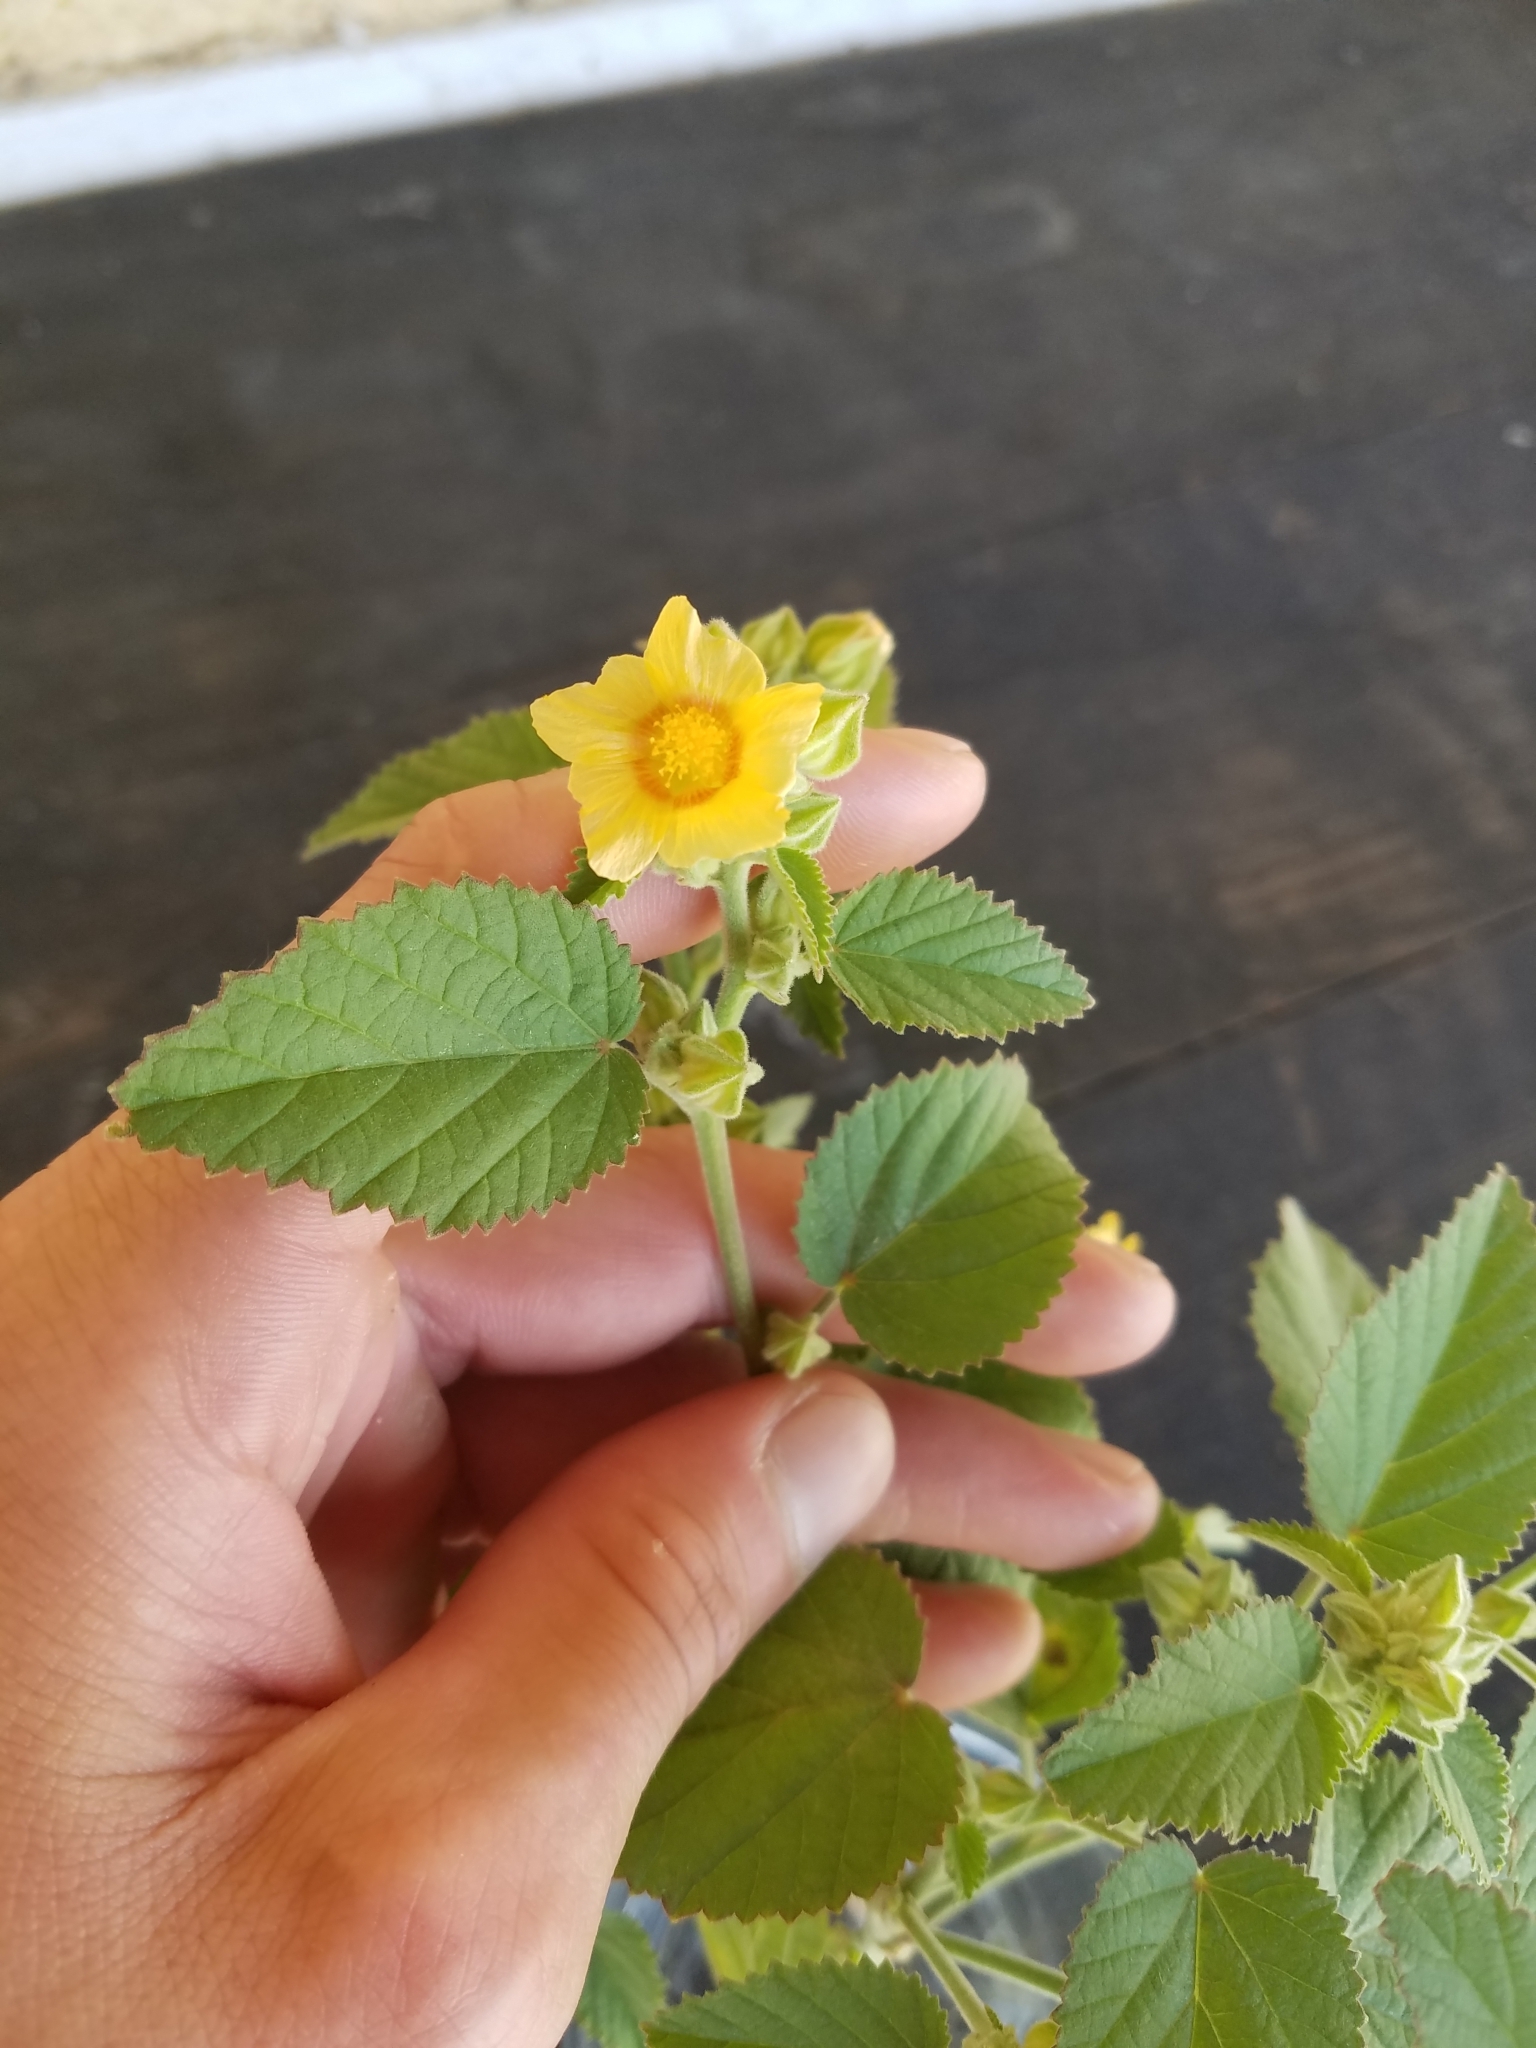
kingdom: Plantae
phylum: Tracheophyta
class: Magnoliopsida
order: Malvales
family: Malvaceae
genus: Sida
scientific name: Sida cordifolia
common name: Ilima
